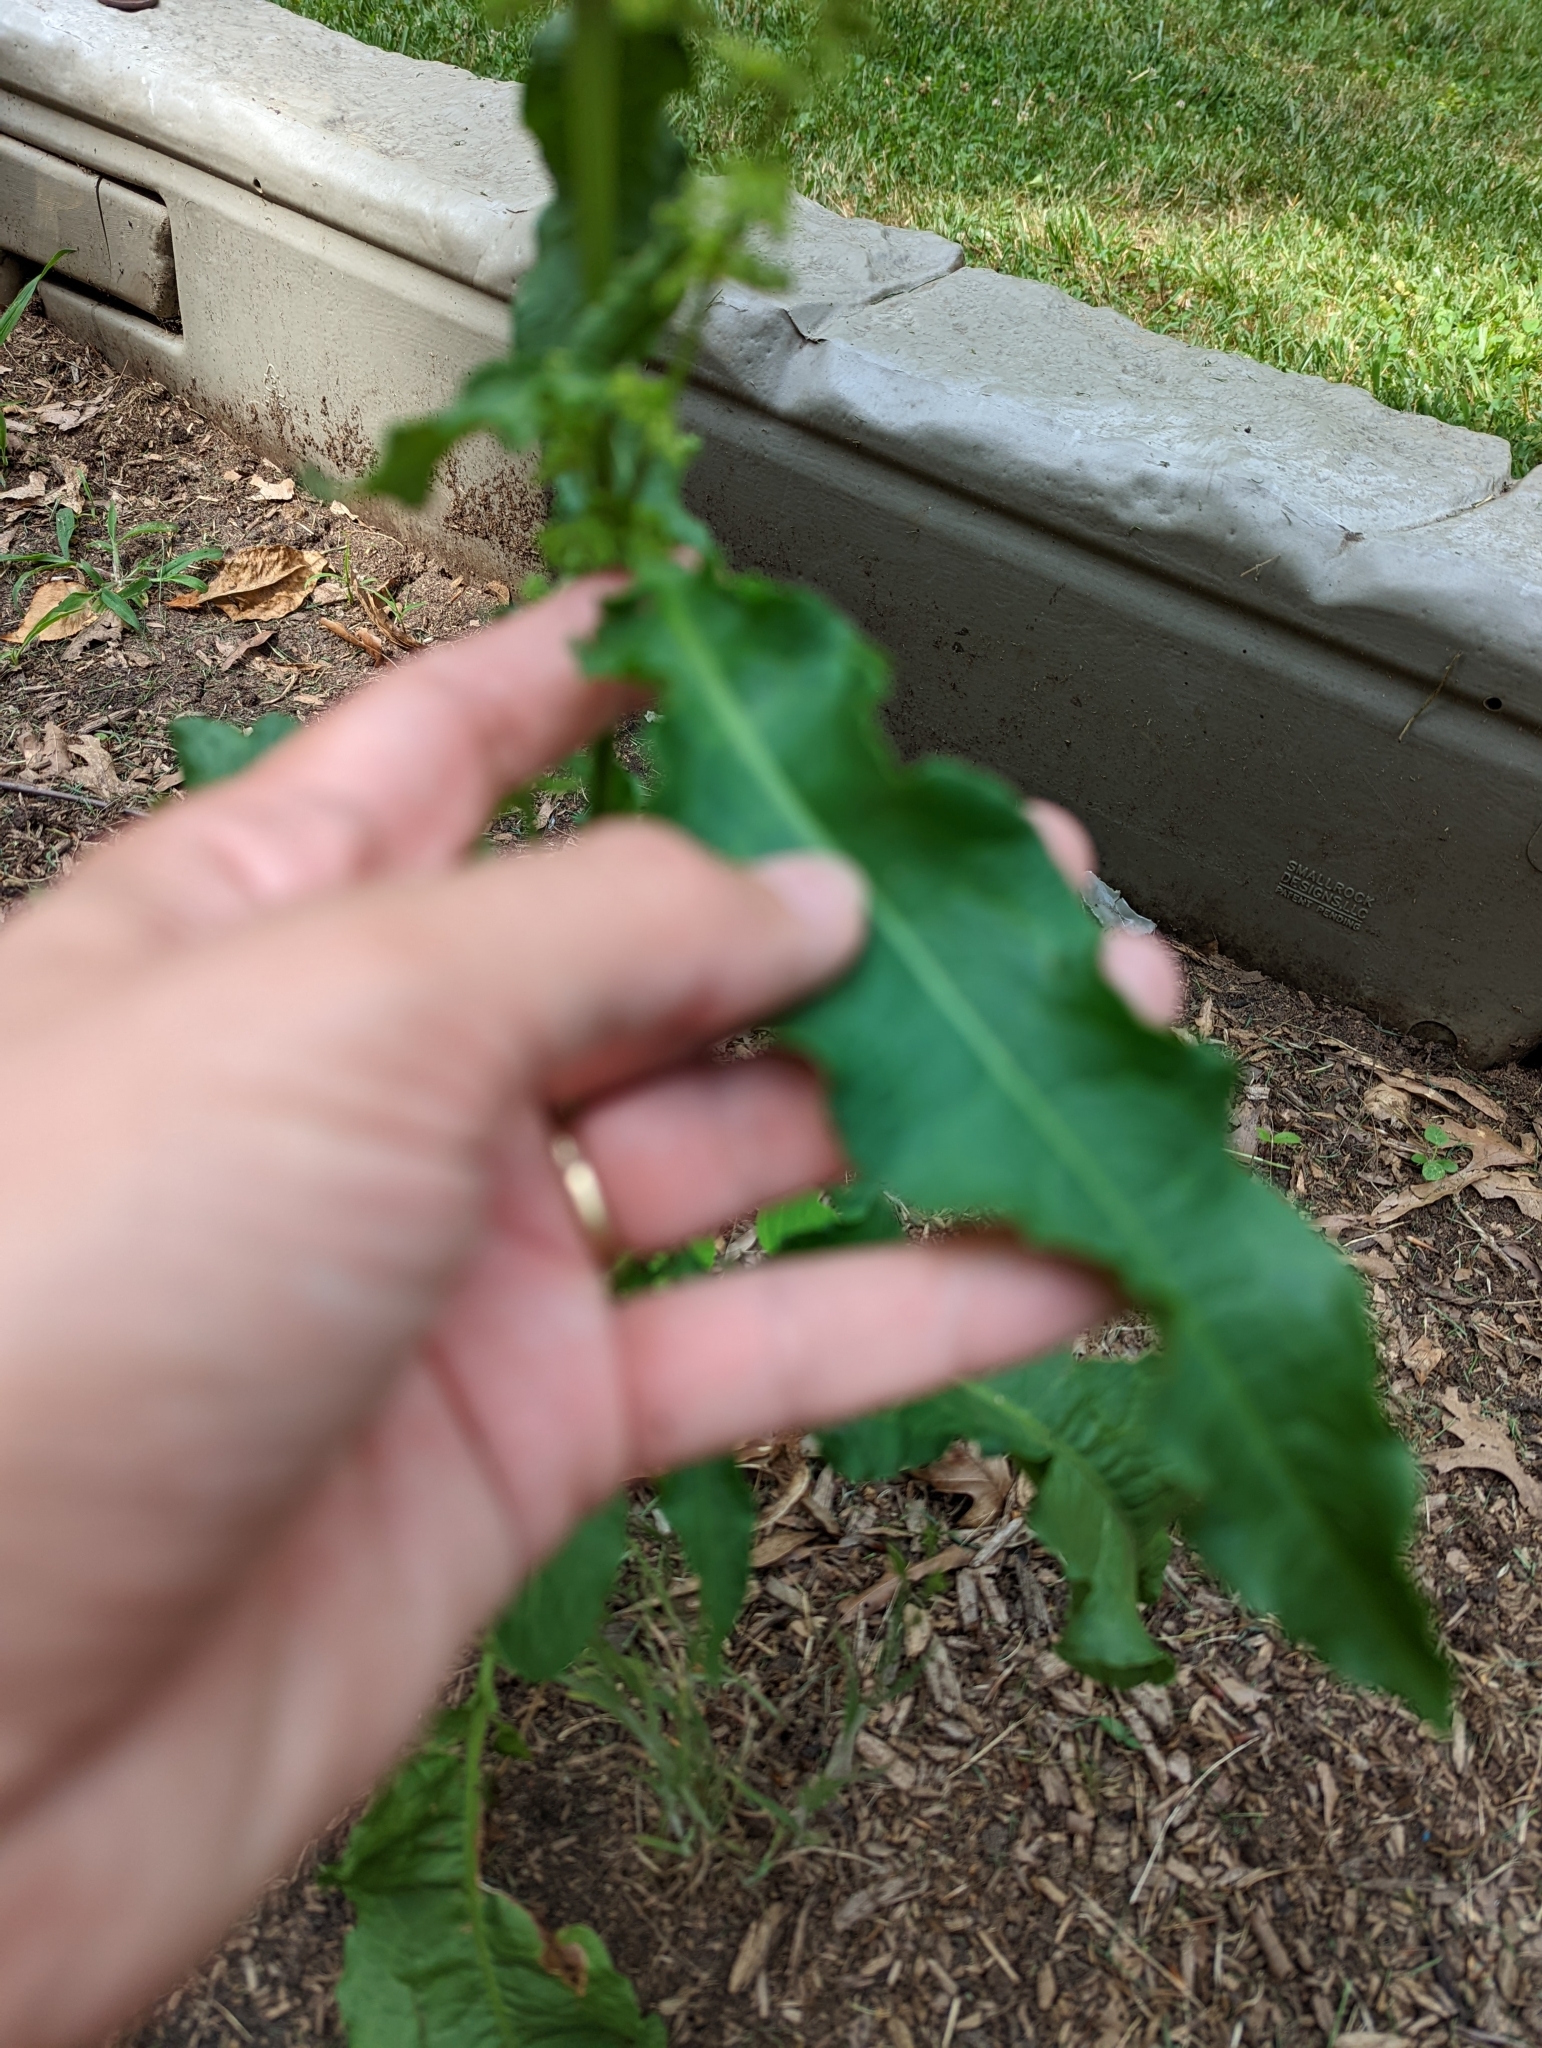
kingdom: Plantae
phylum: Tracheophyta
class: Magnoliopsida
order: Caryophyllales
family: Polygonaceae
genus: Rumex
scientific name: Rumex crispus
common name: Curled dock
